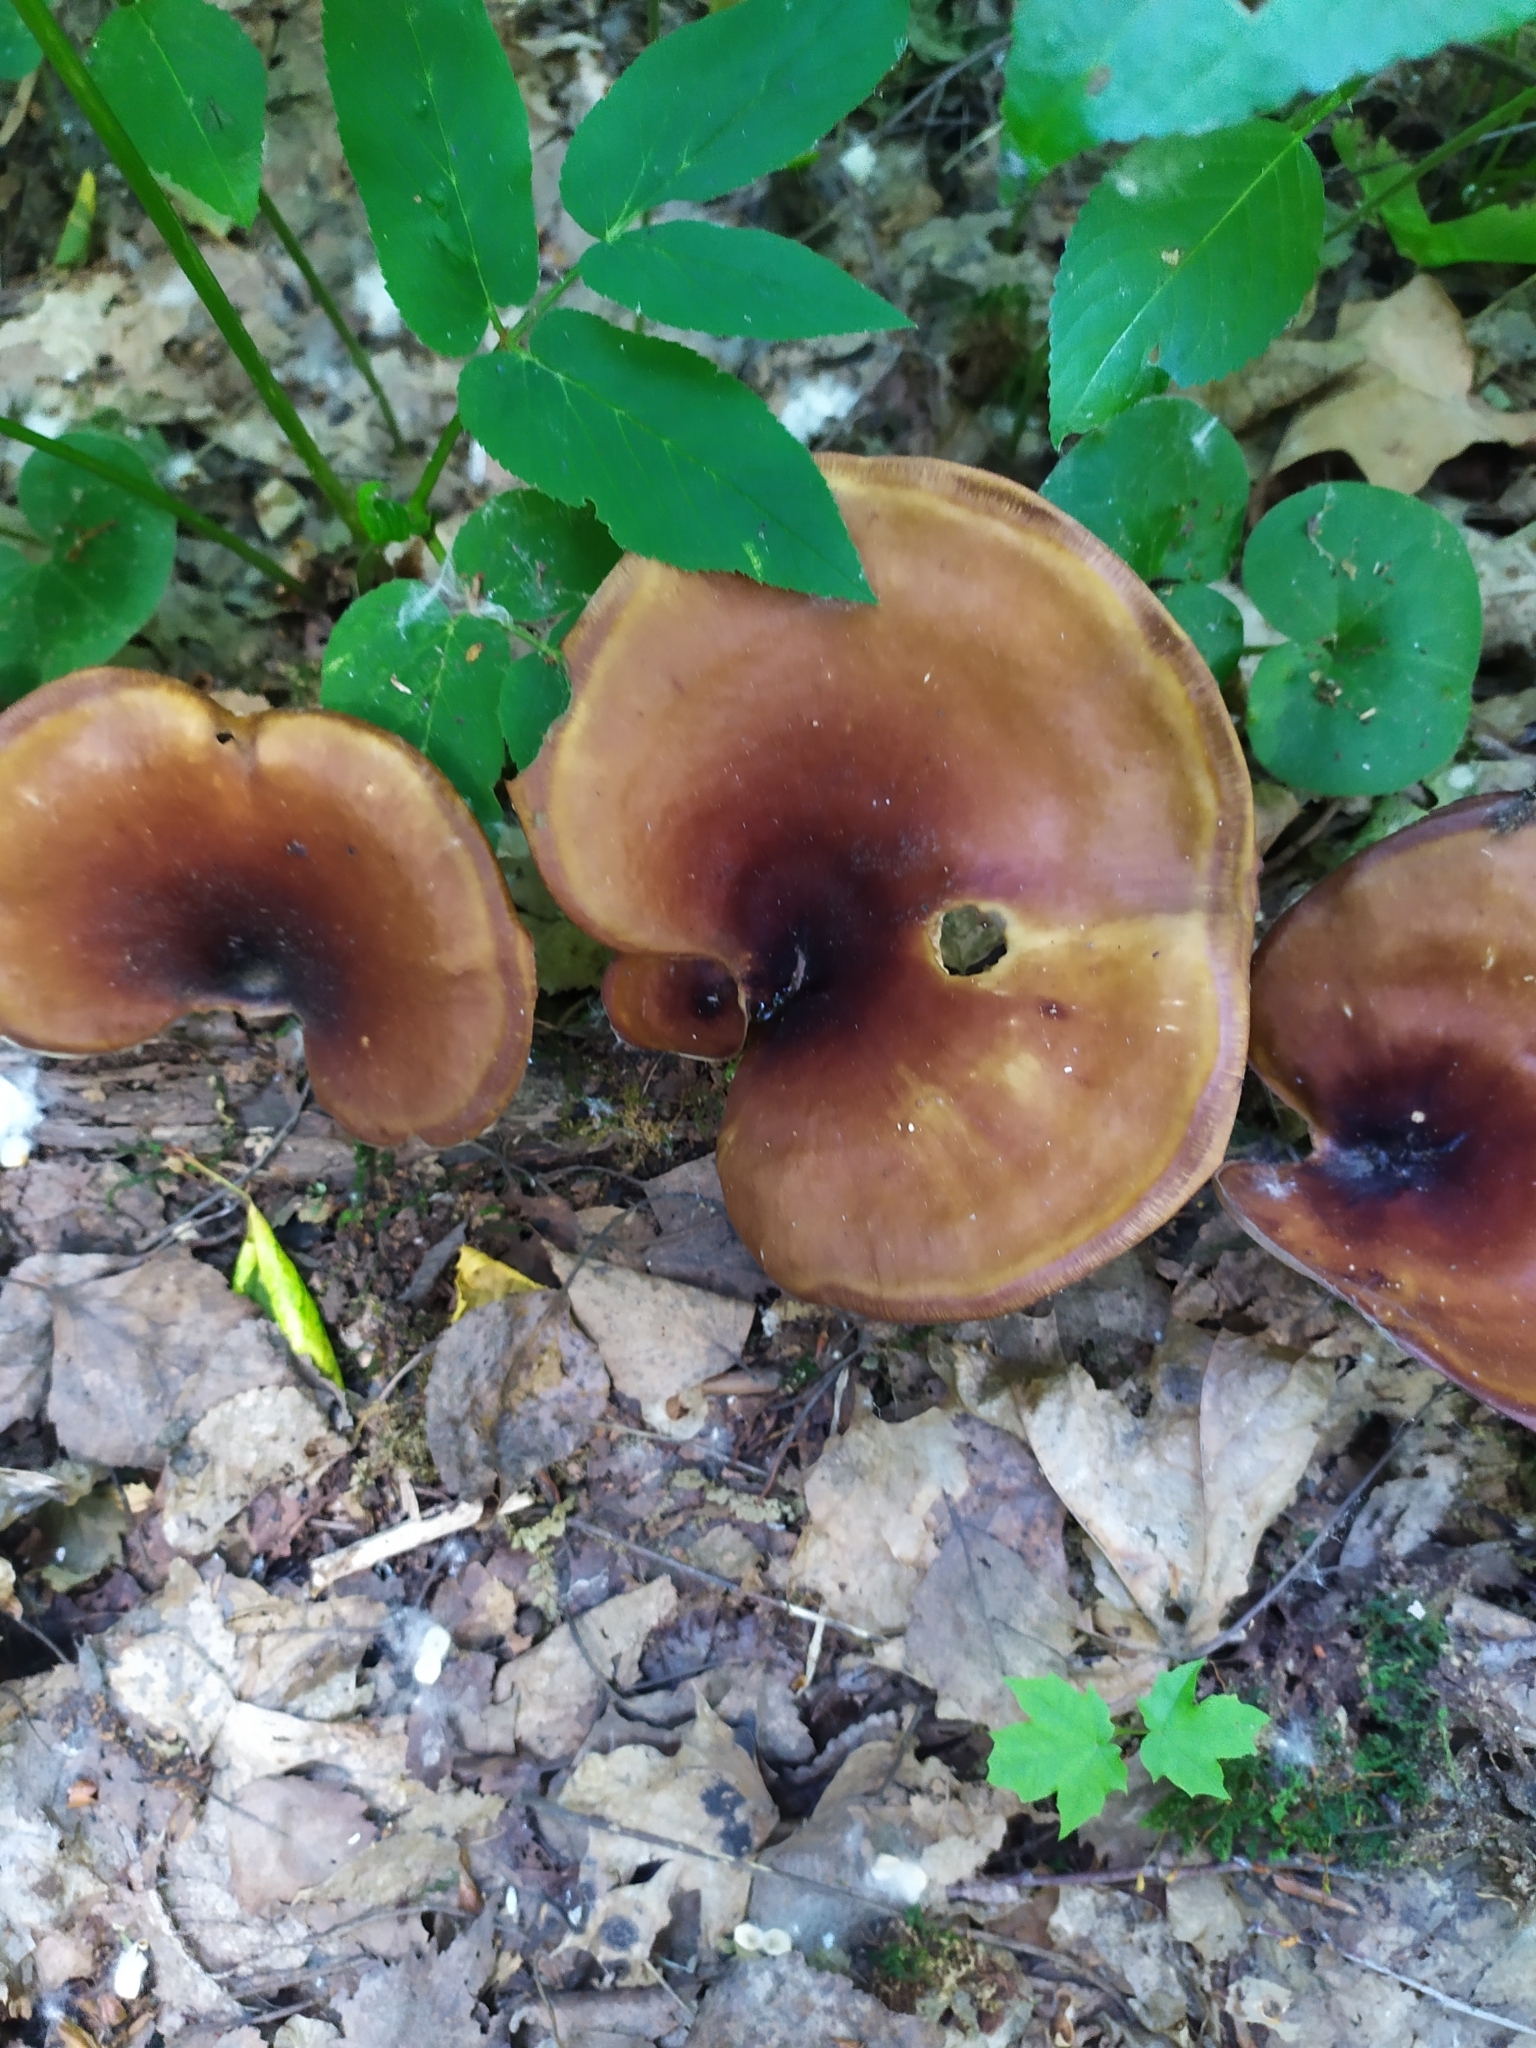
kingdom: Fungi
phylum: Basidiomycota
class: Agaricomycetes
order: Polyporales
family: Polyporaceae
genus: Picipes
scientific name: Picipes badius
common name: Bay polypore
